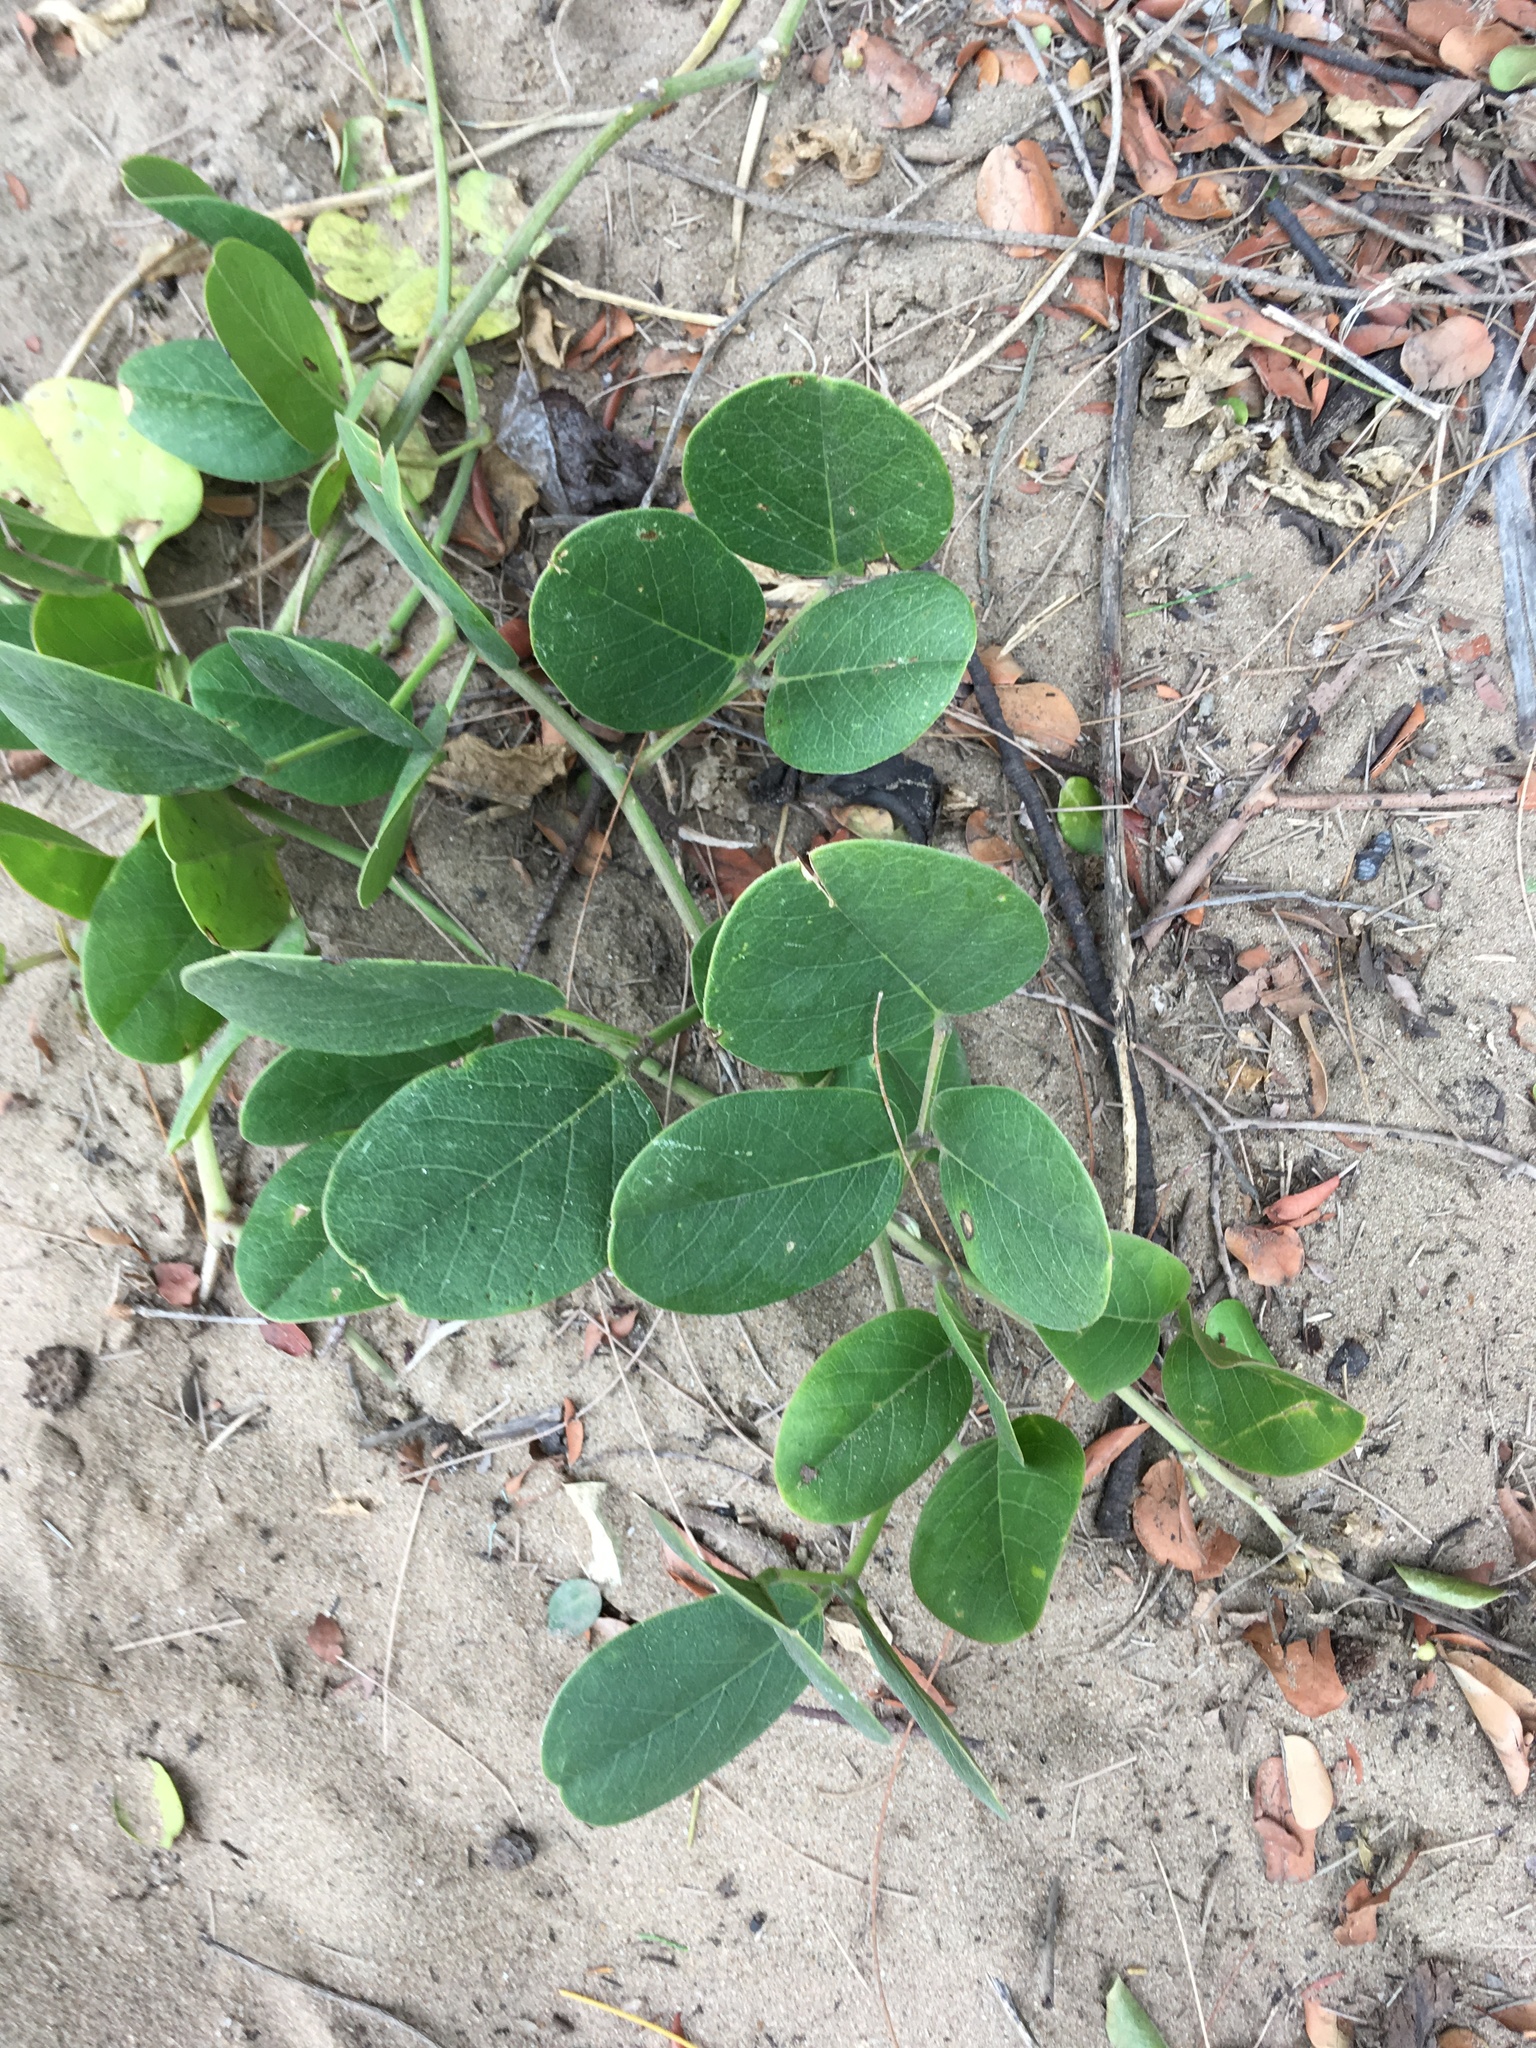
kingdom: Plantae
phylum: Tracheophyta
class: Magnoliopsida
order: Fabales
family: Fabaceae
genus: Canavalia
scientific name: Canavalia rosea
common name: Beach-bean
